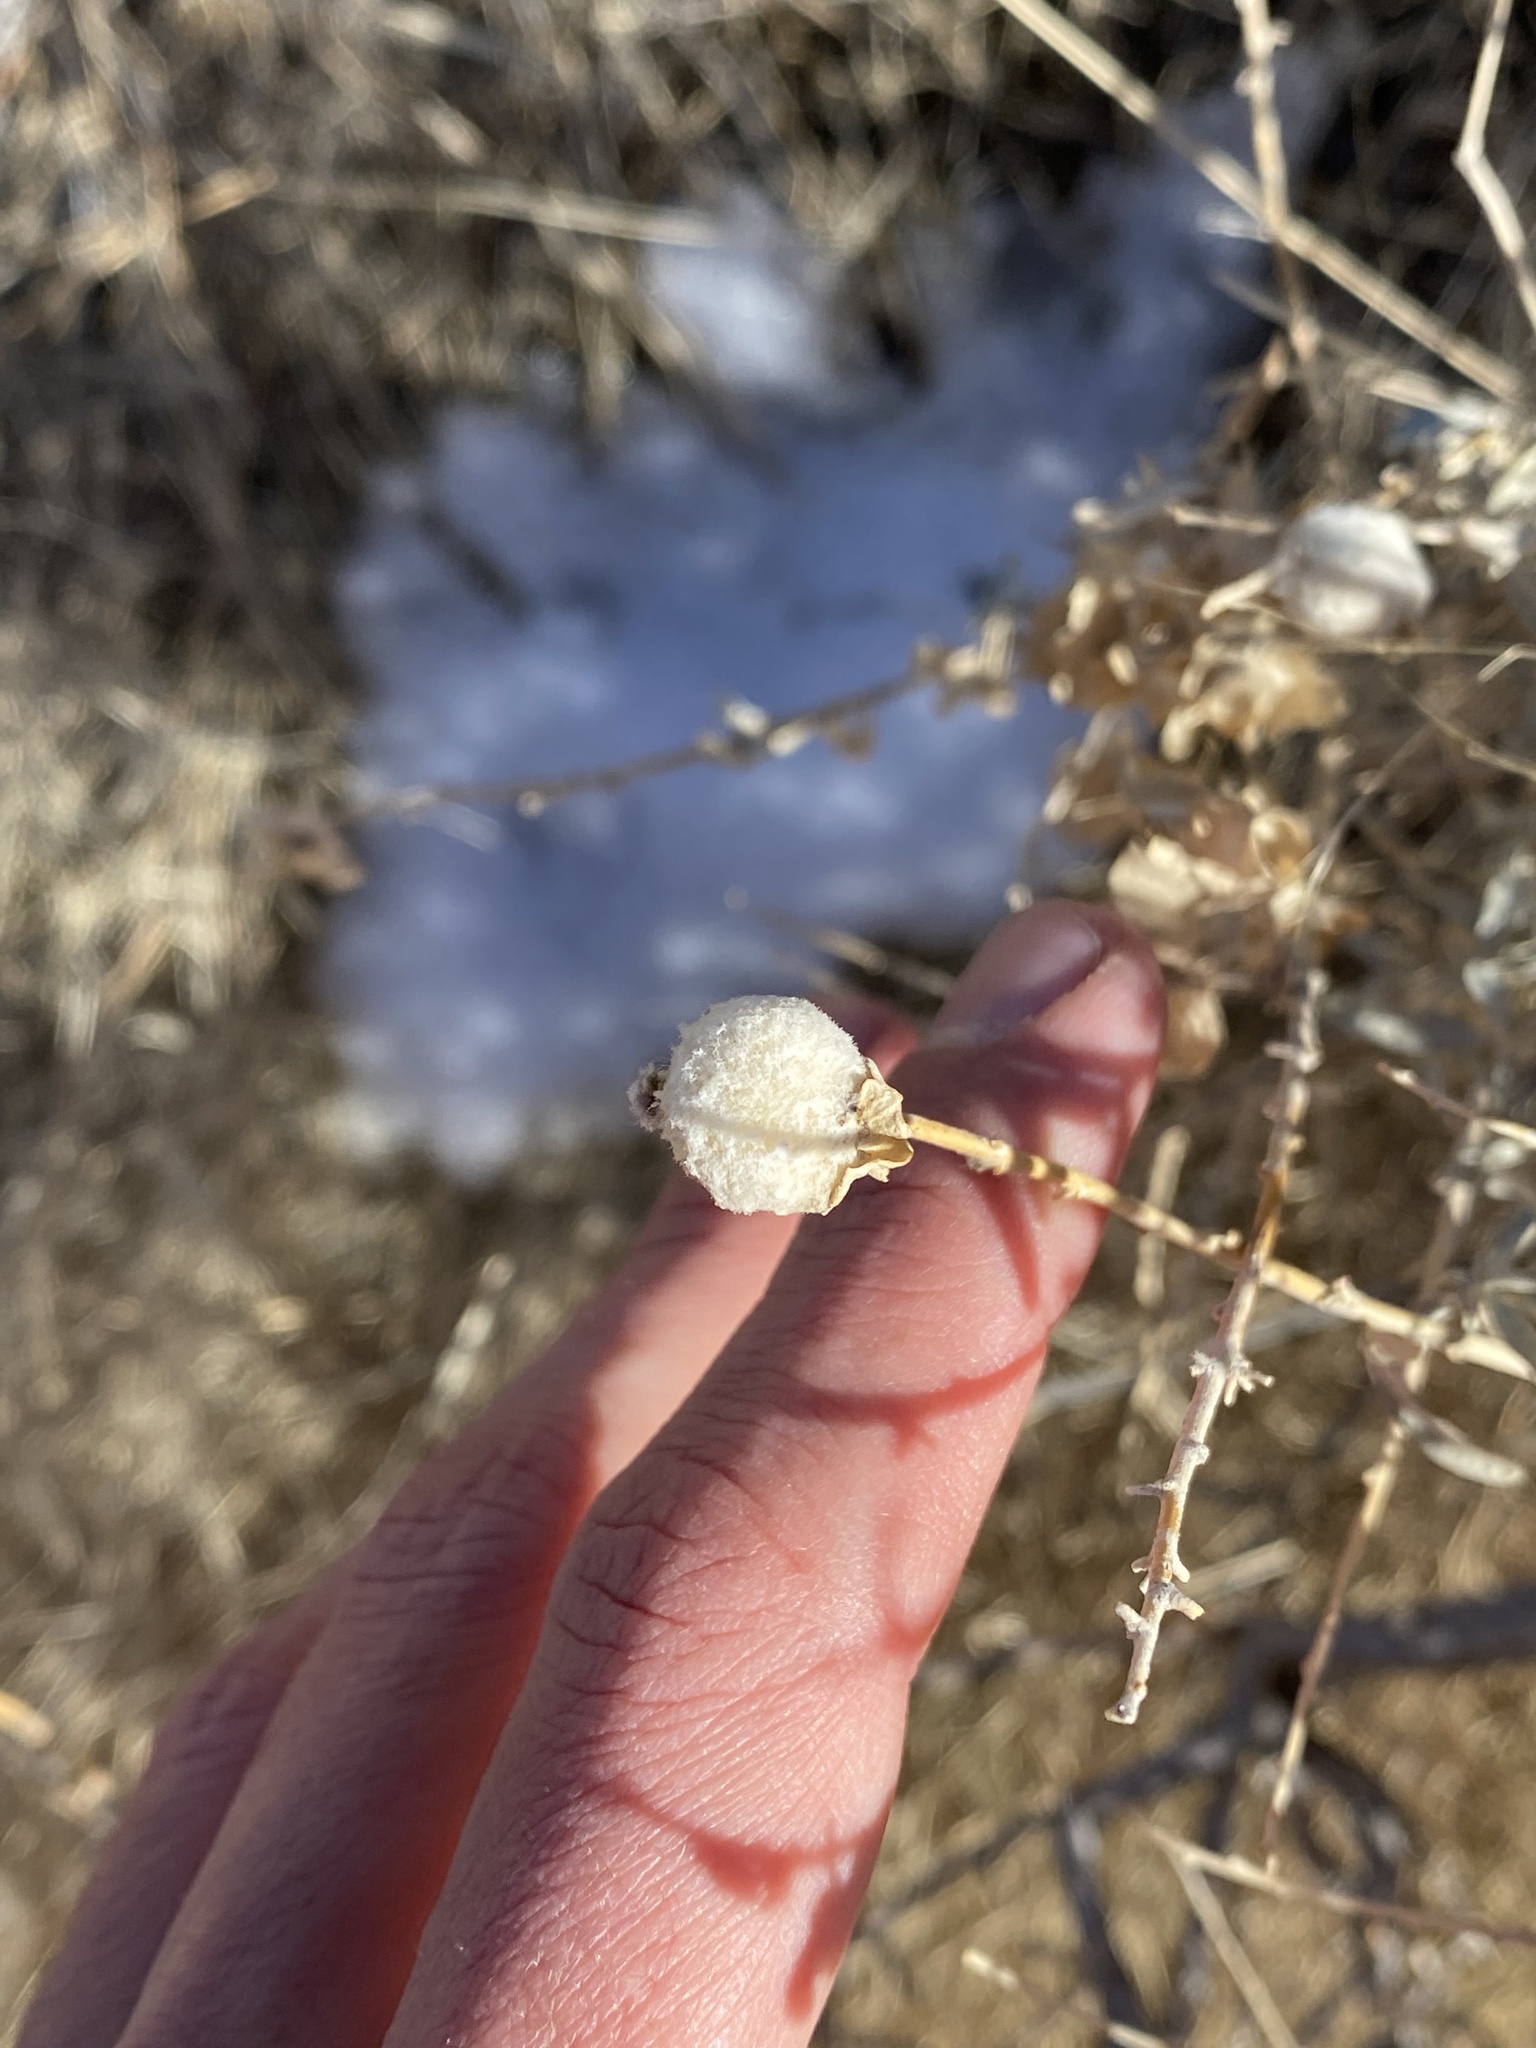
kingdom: Animalia
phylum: Arthropoda
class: Insecta
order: Diptera
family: Cecidomyiidae
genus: Asphondylia
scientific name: Asphondylia neomexicana
